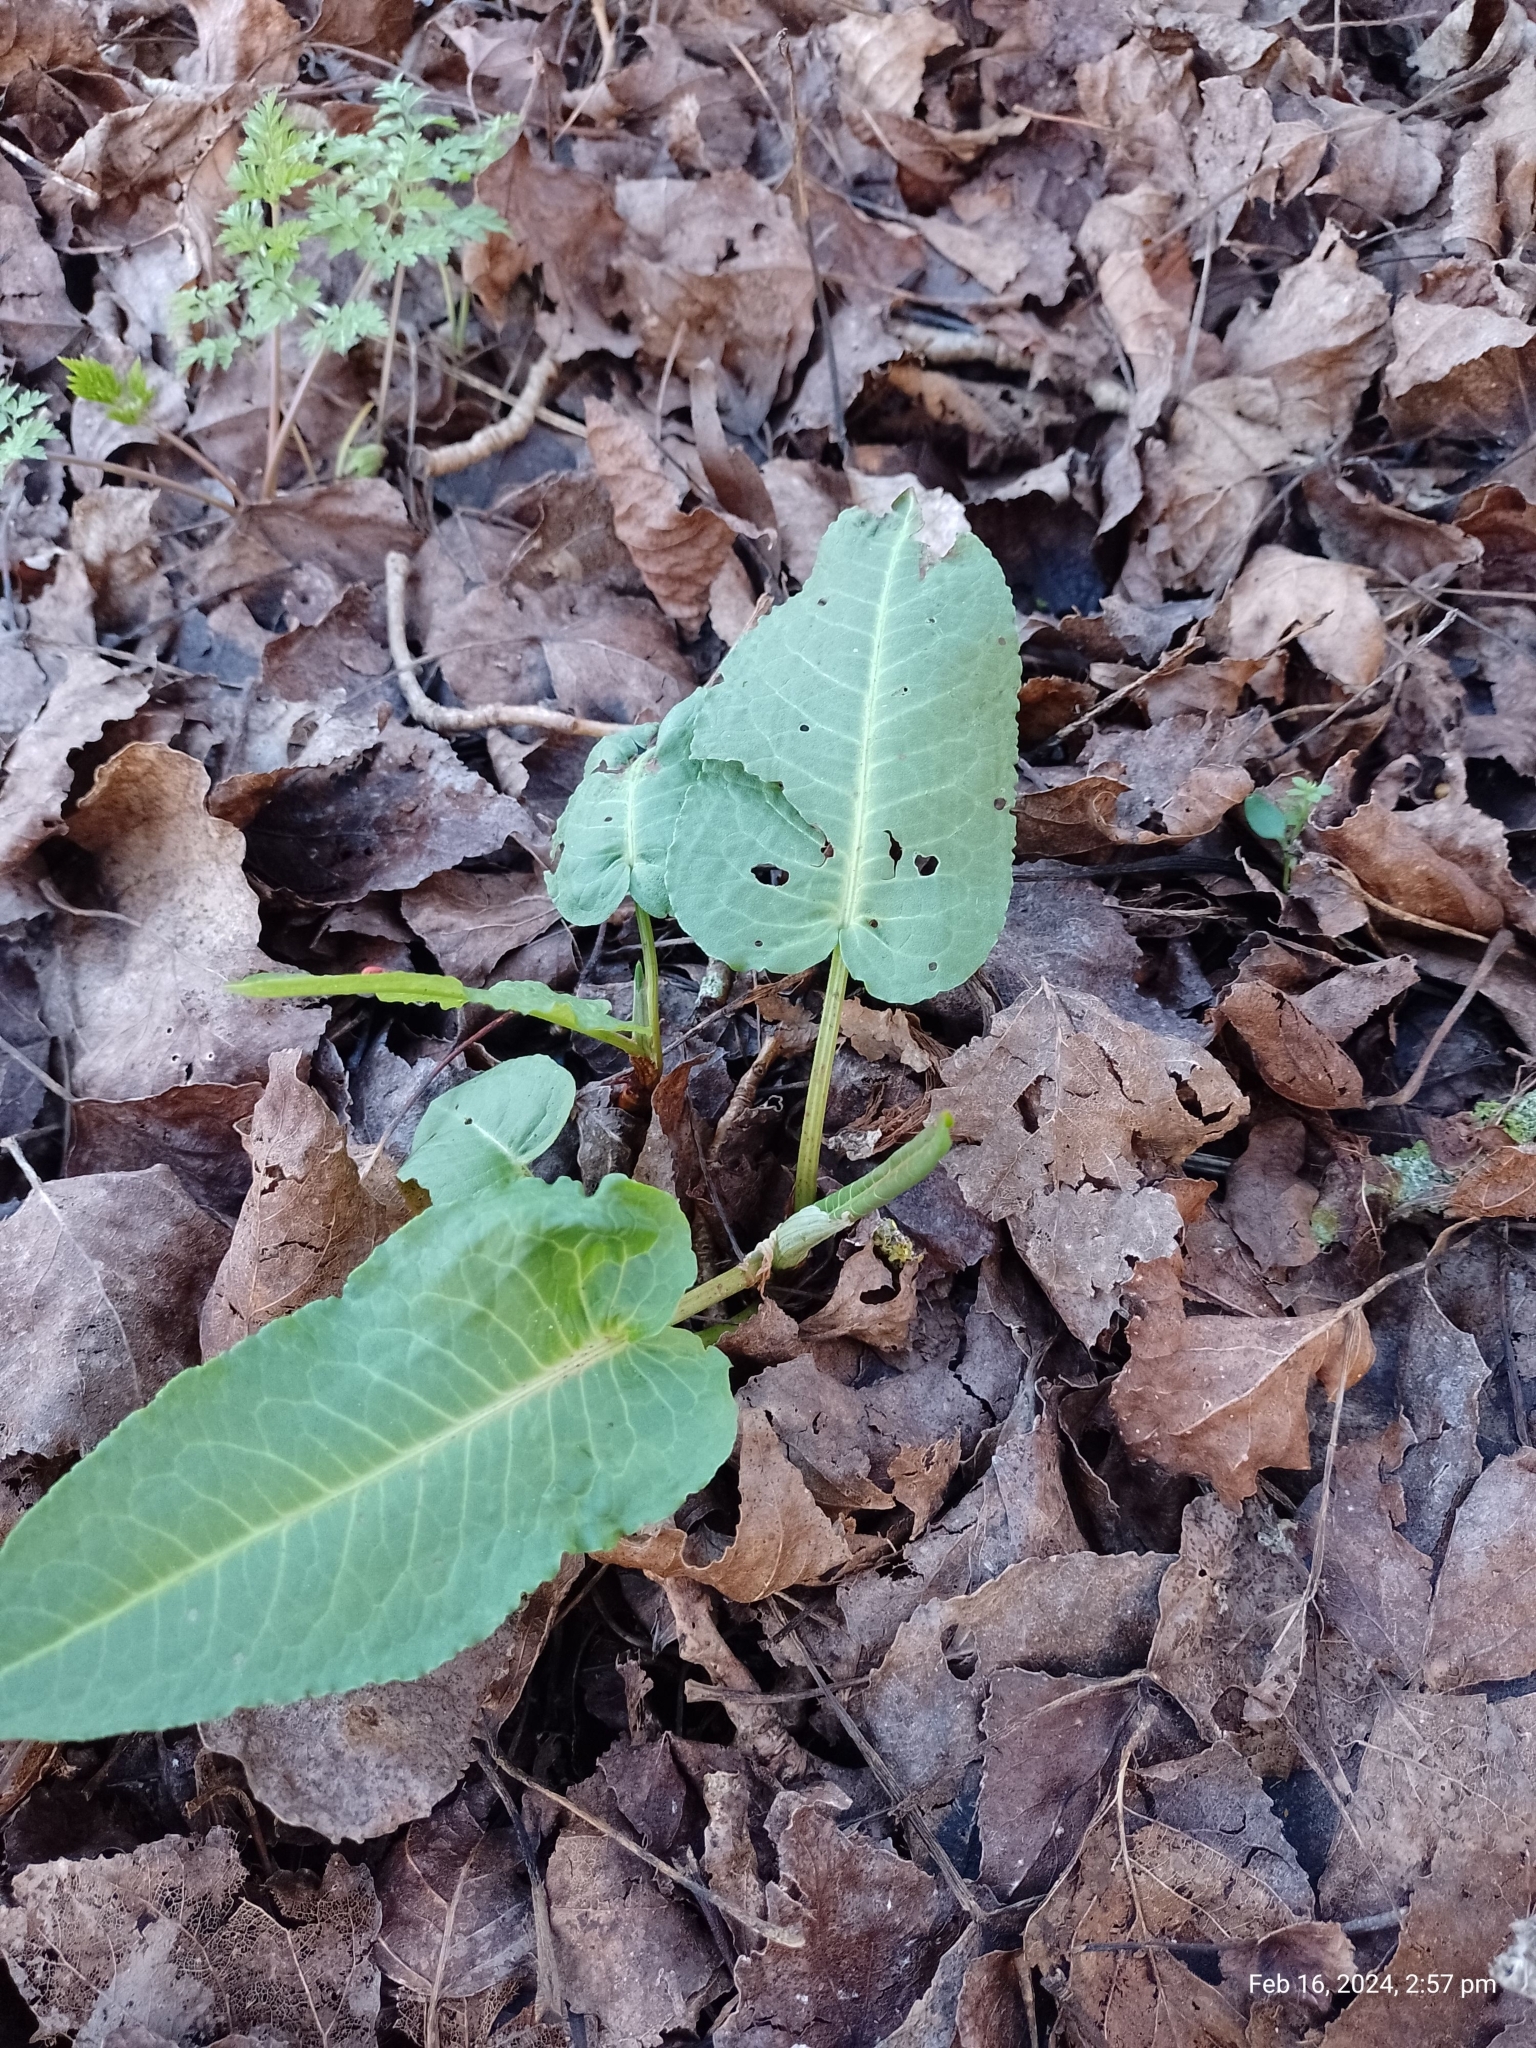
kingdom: Plantae
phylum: Tracheophyta
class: Magnoliopsida
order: Caryophyllales
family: Polygonaceae
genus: Rumex
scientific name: Rumex obtusifolius
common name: Bitter dock
